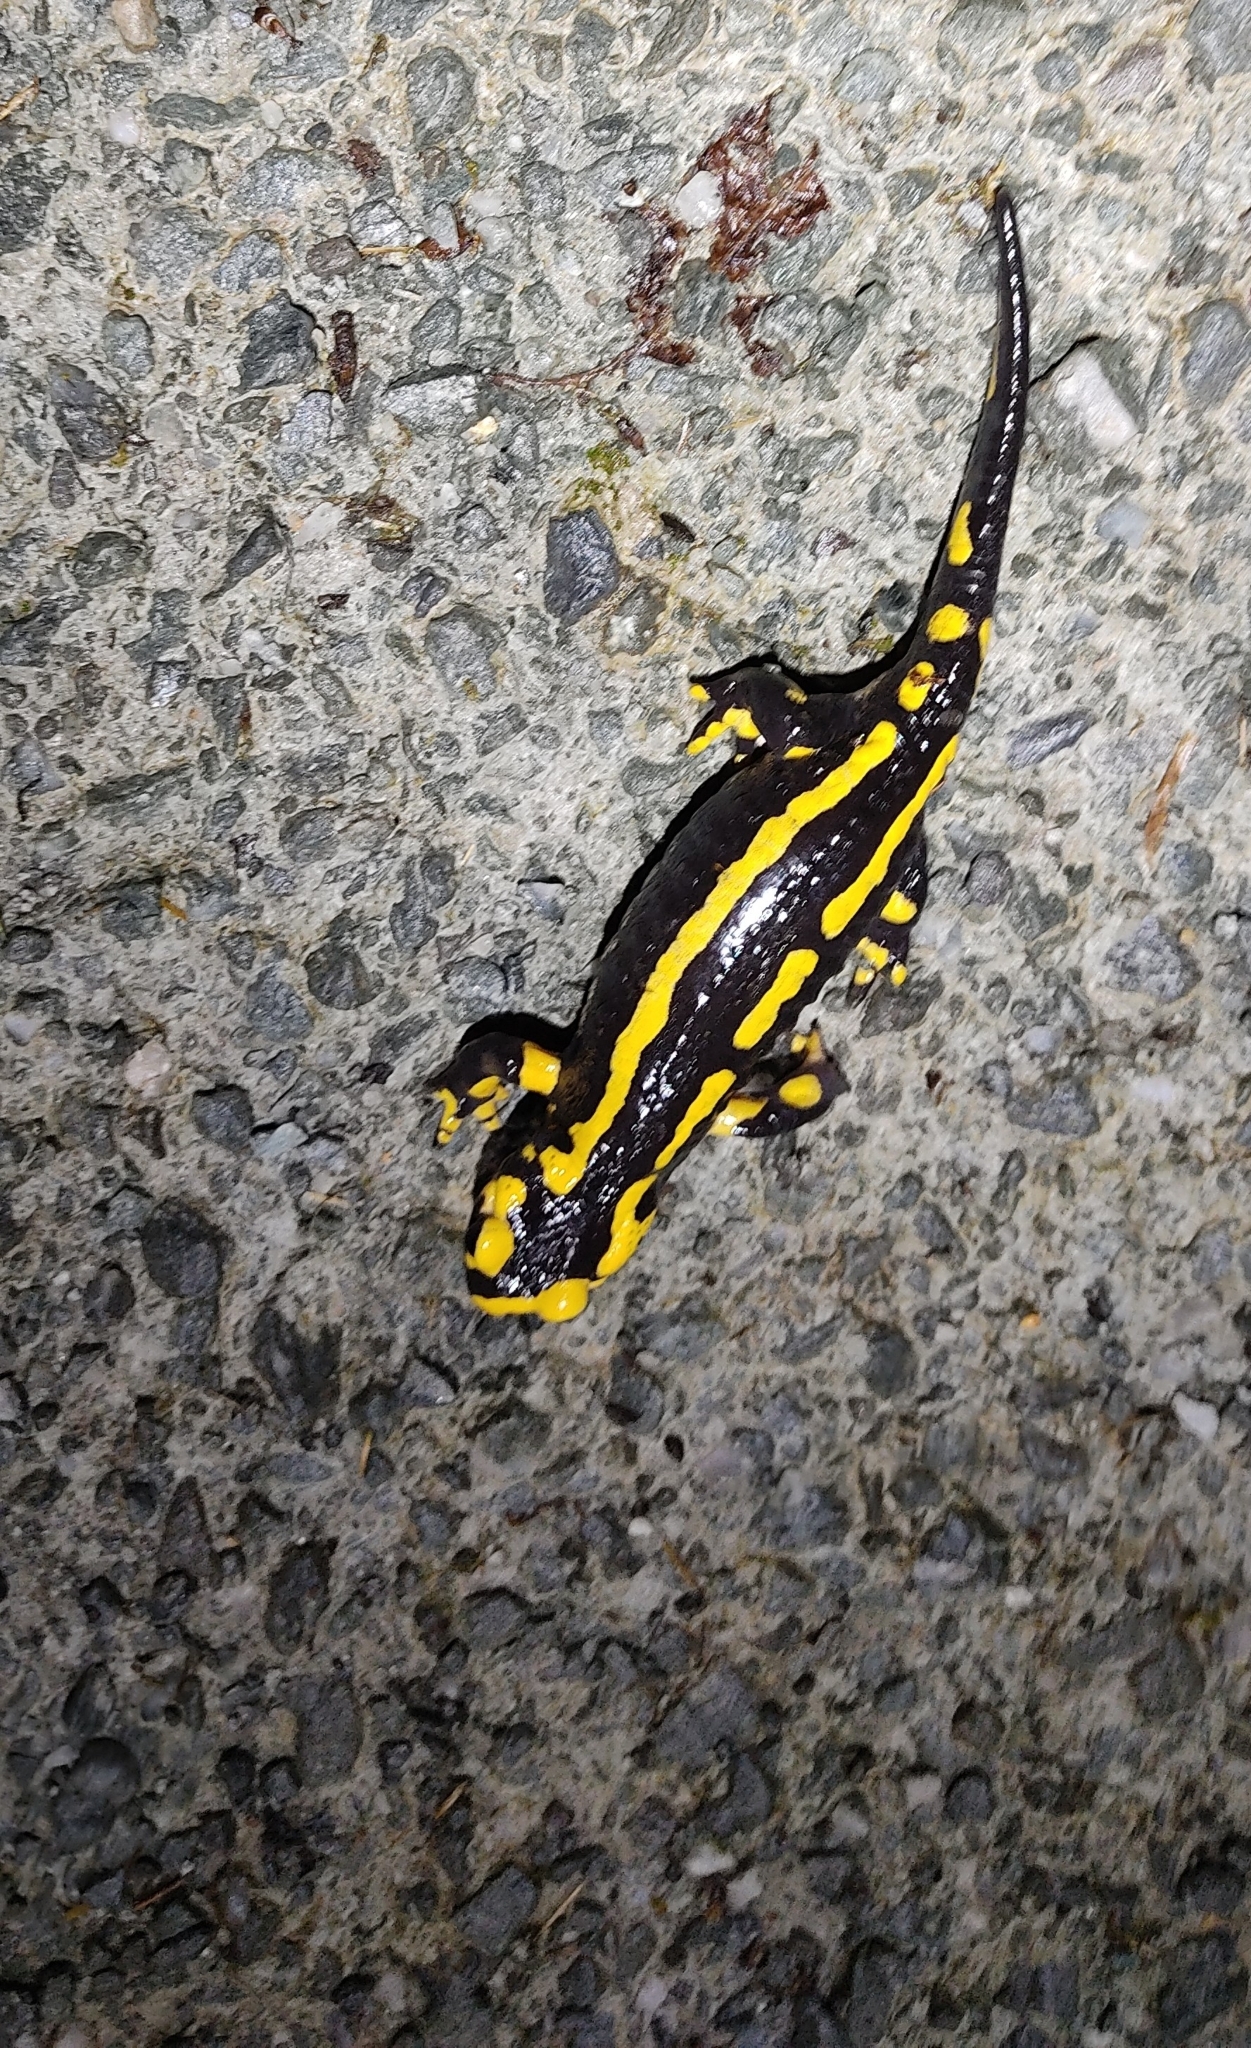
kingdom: Animalia
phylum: Chordata
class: Amphibia
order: Caudata
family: Salamandridae
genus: Salamandra
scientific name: Salamandra salamandra
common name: Fire salamander
